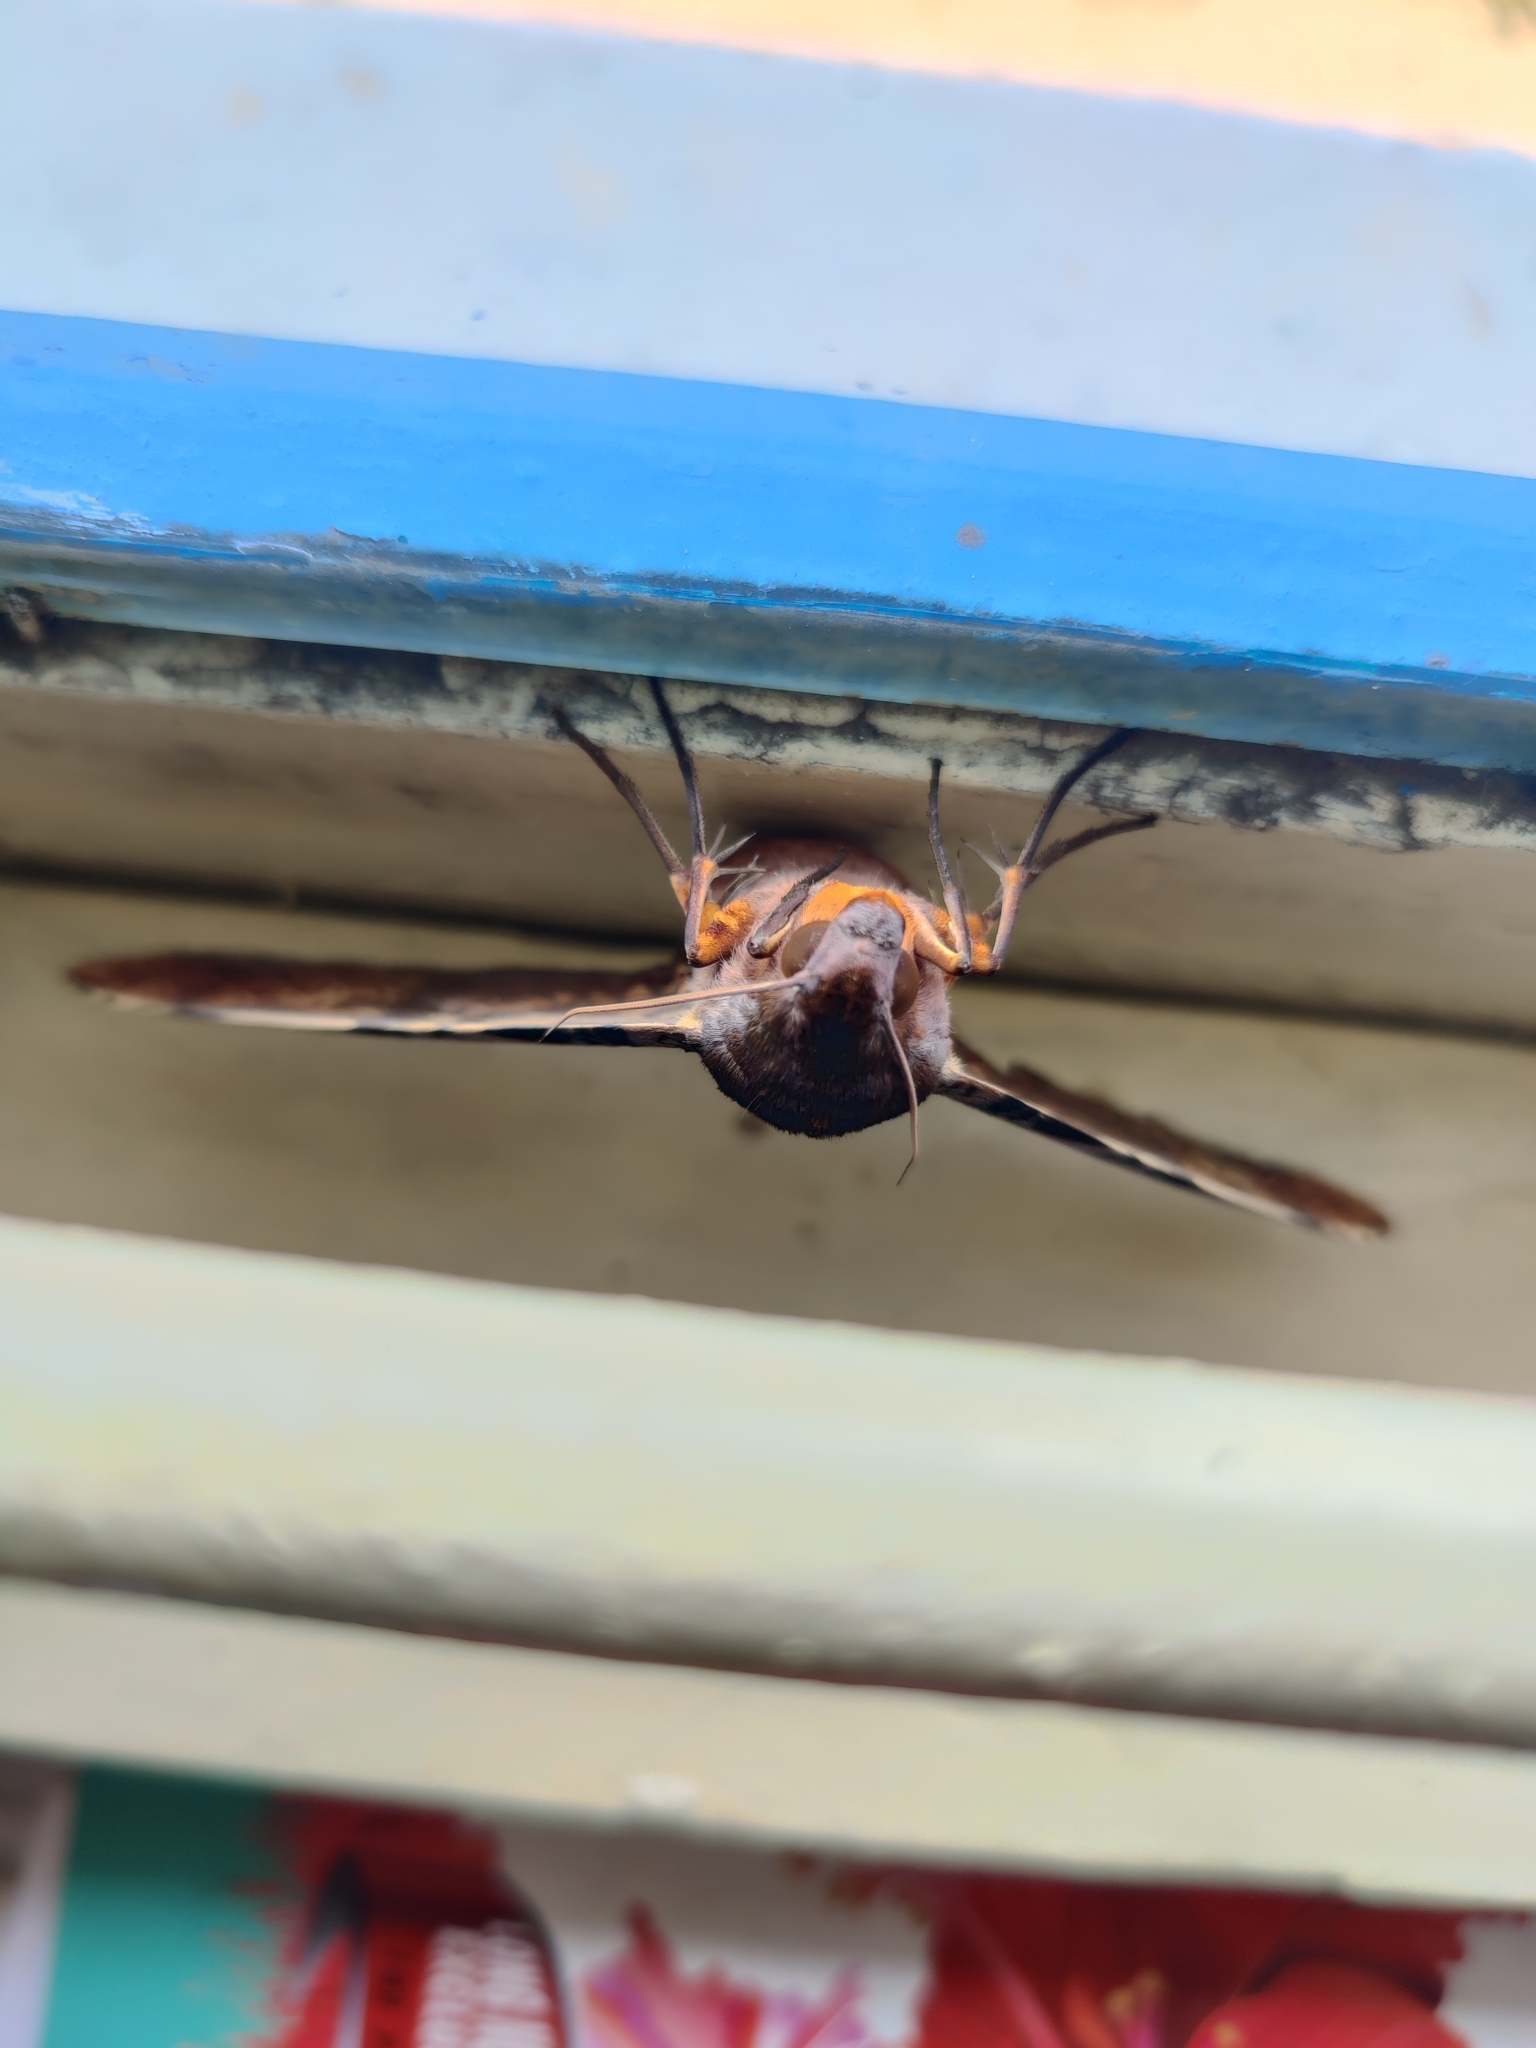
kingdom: Animalia
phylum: Arthropoda
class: Insecta
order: Lepidoptera
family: Sphingidae
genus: Amplypterus
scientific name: Amplypterus panopus
